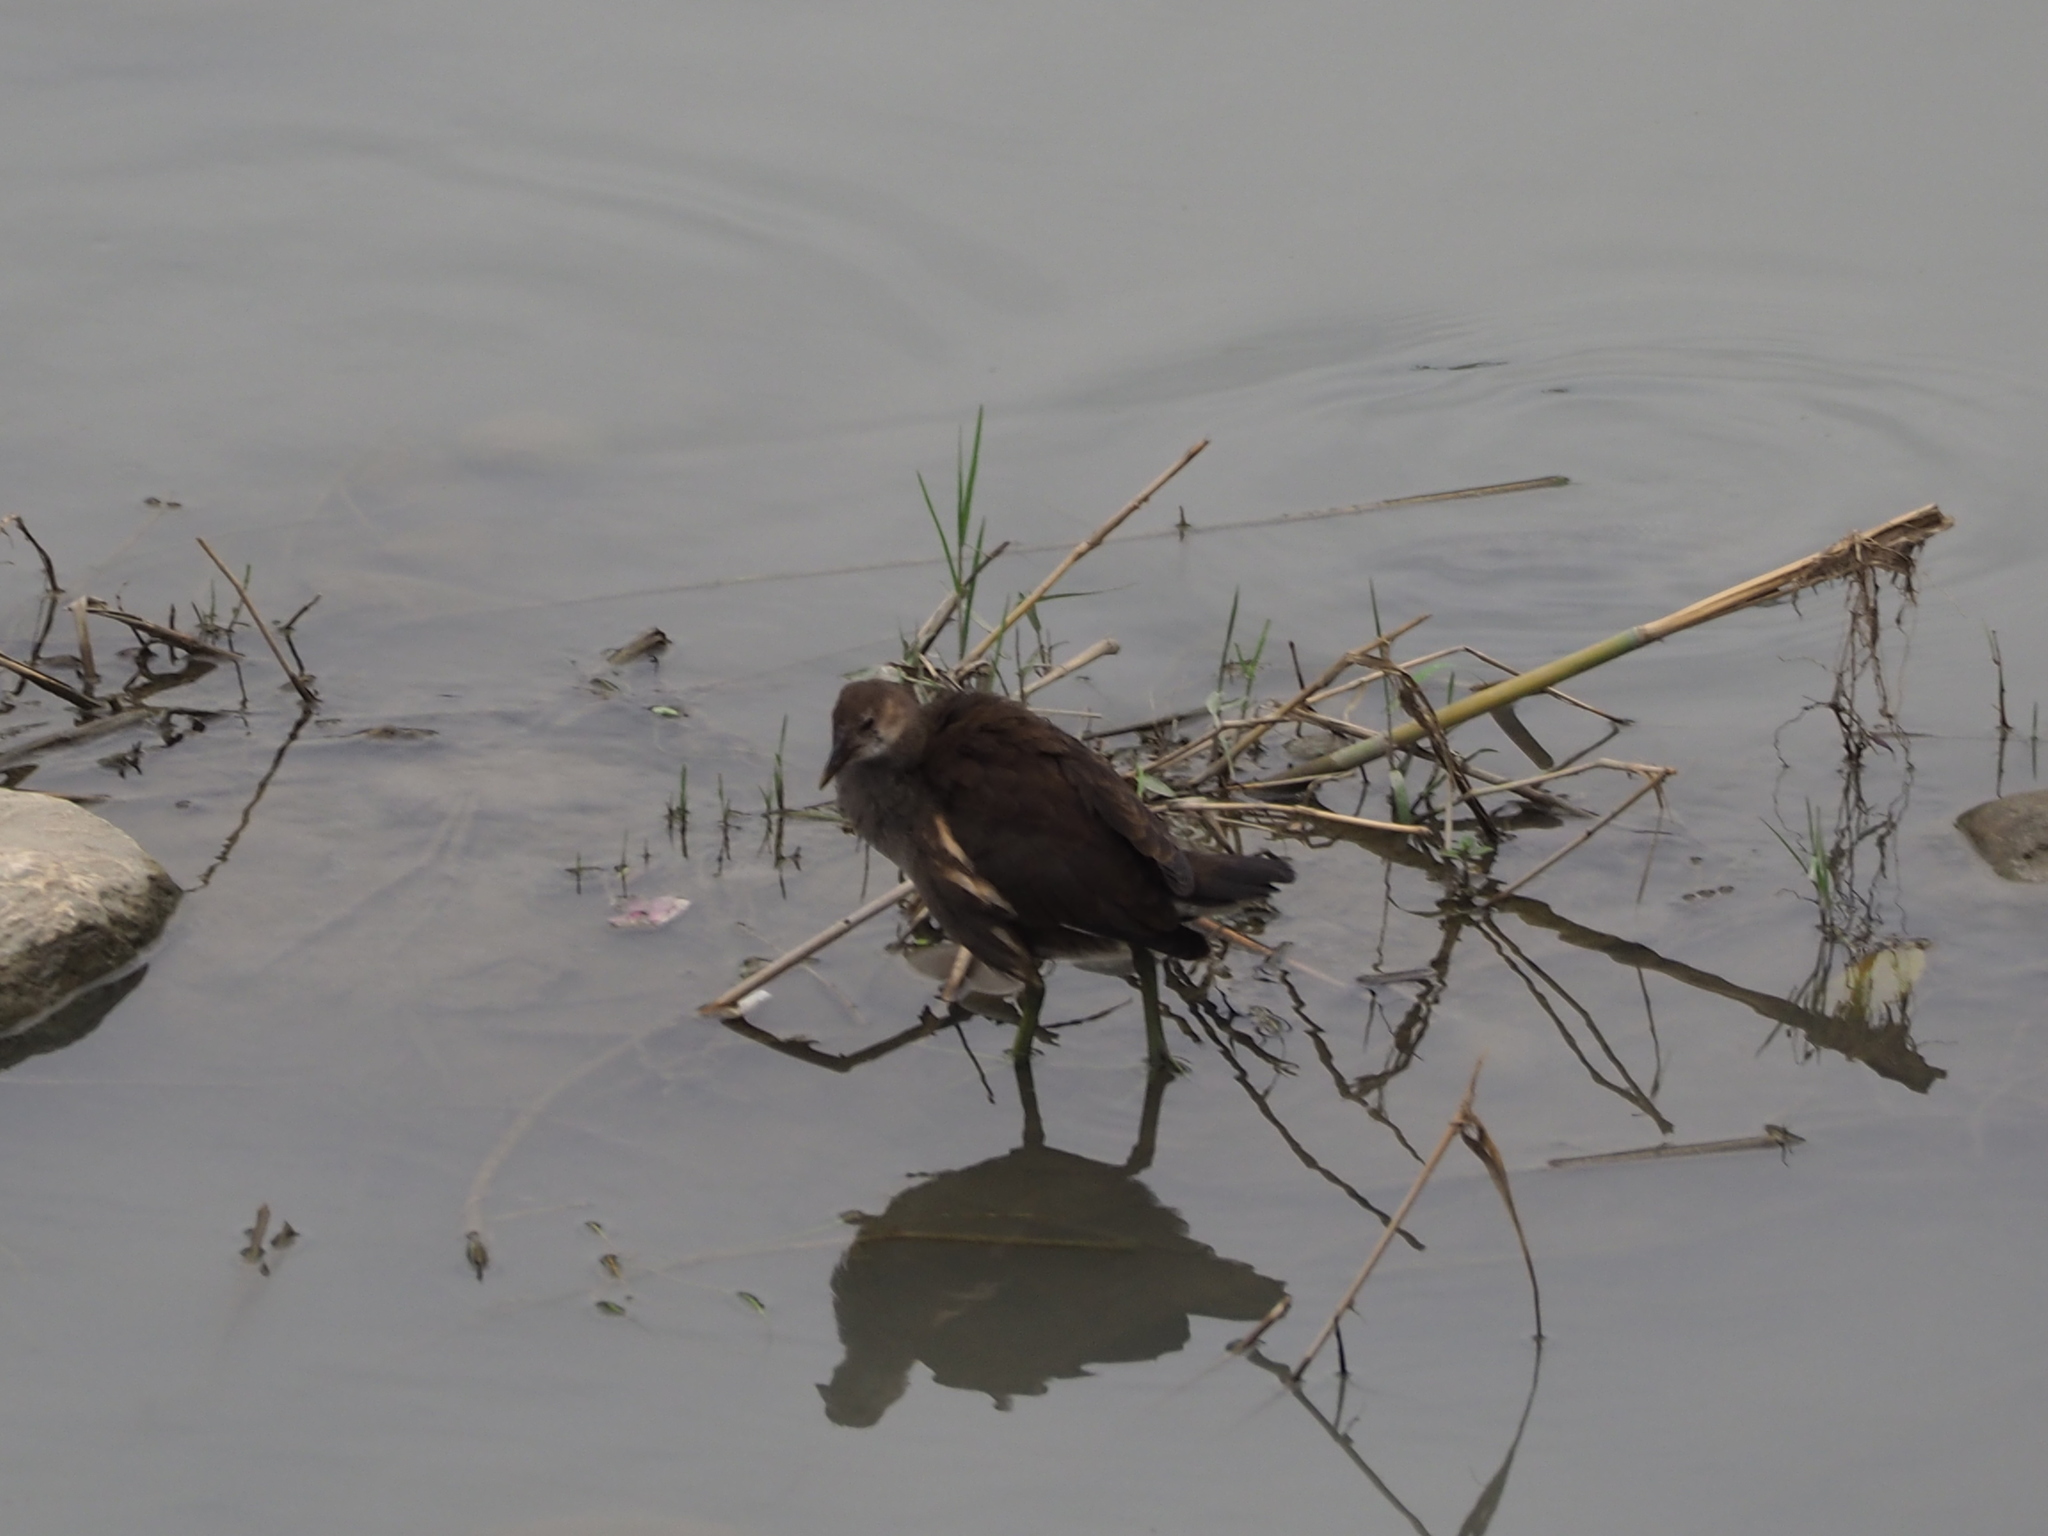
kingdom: Animalia
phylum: Chordata
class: Aves
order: Gruiformes
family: Rallidae
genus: Gallinula
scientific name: Gallinula chloropus
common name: Common moorhen
